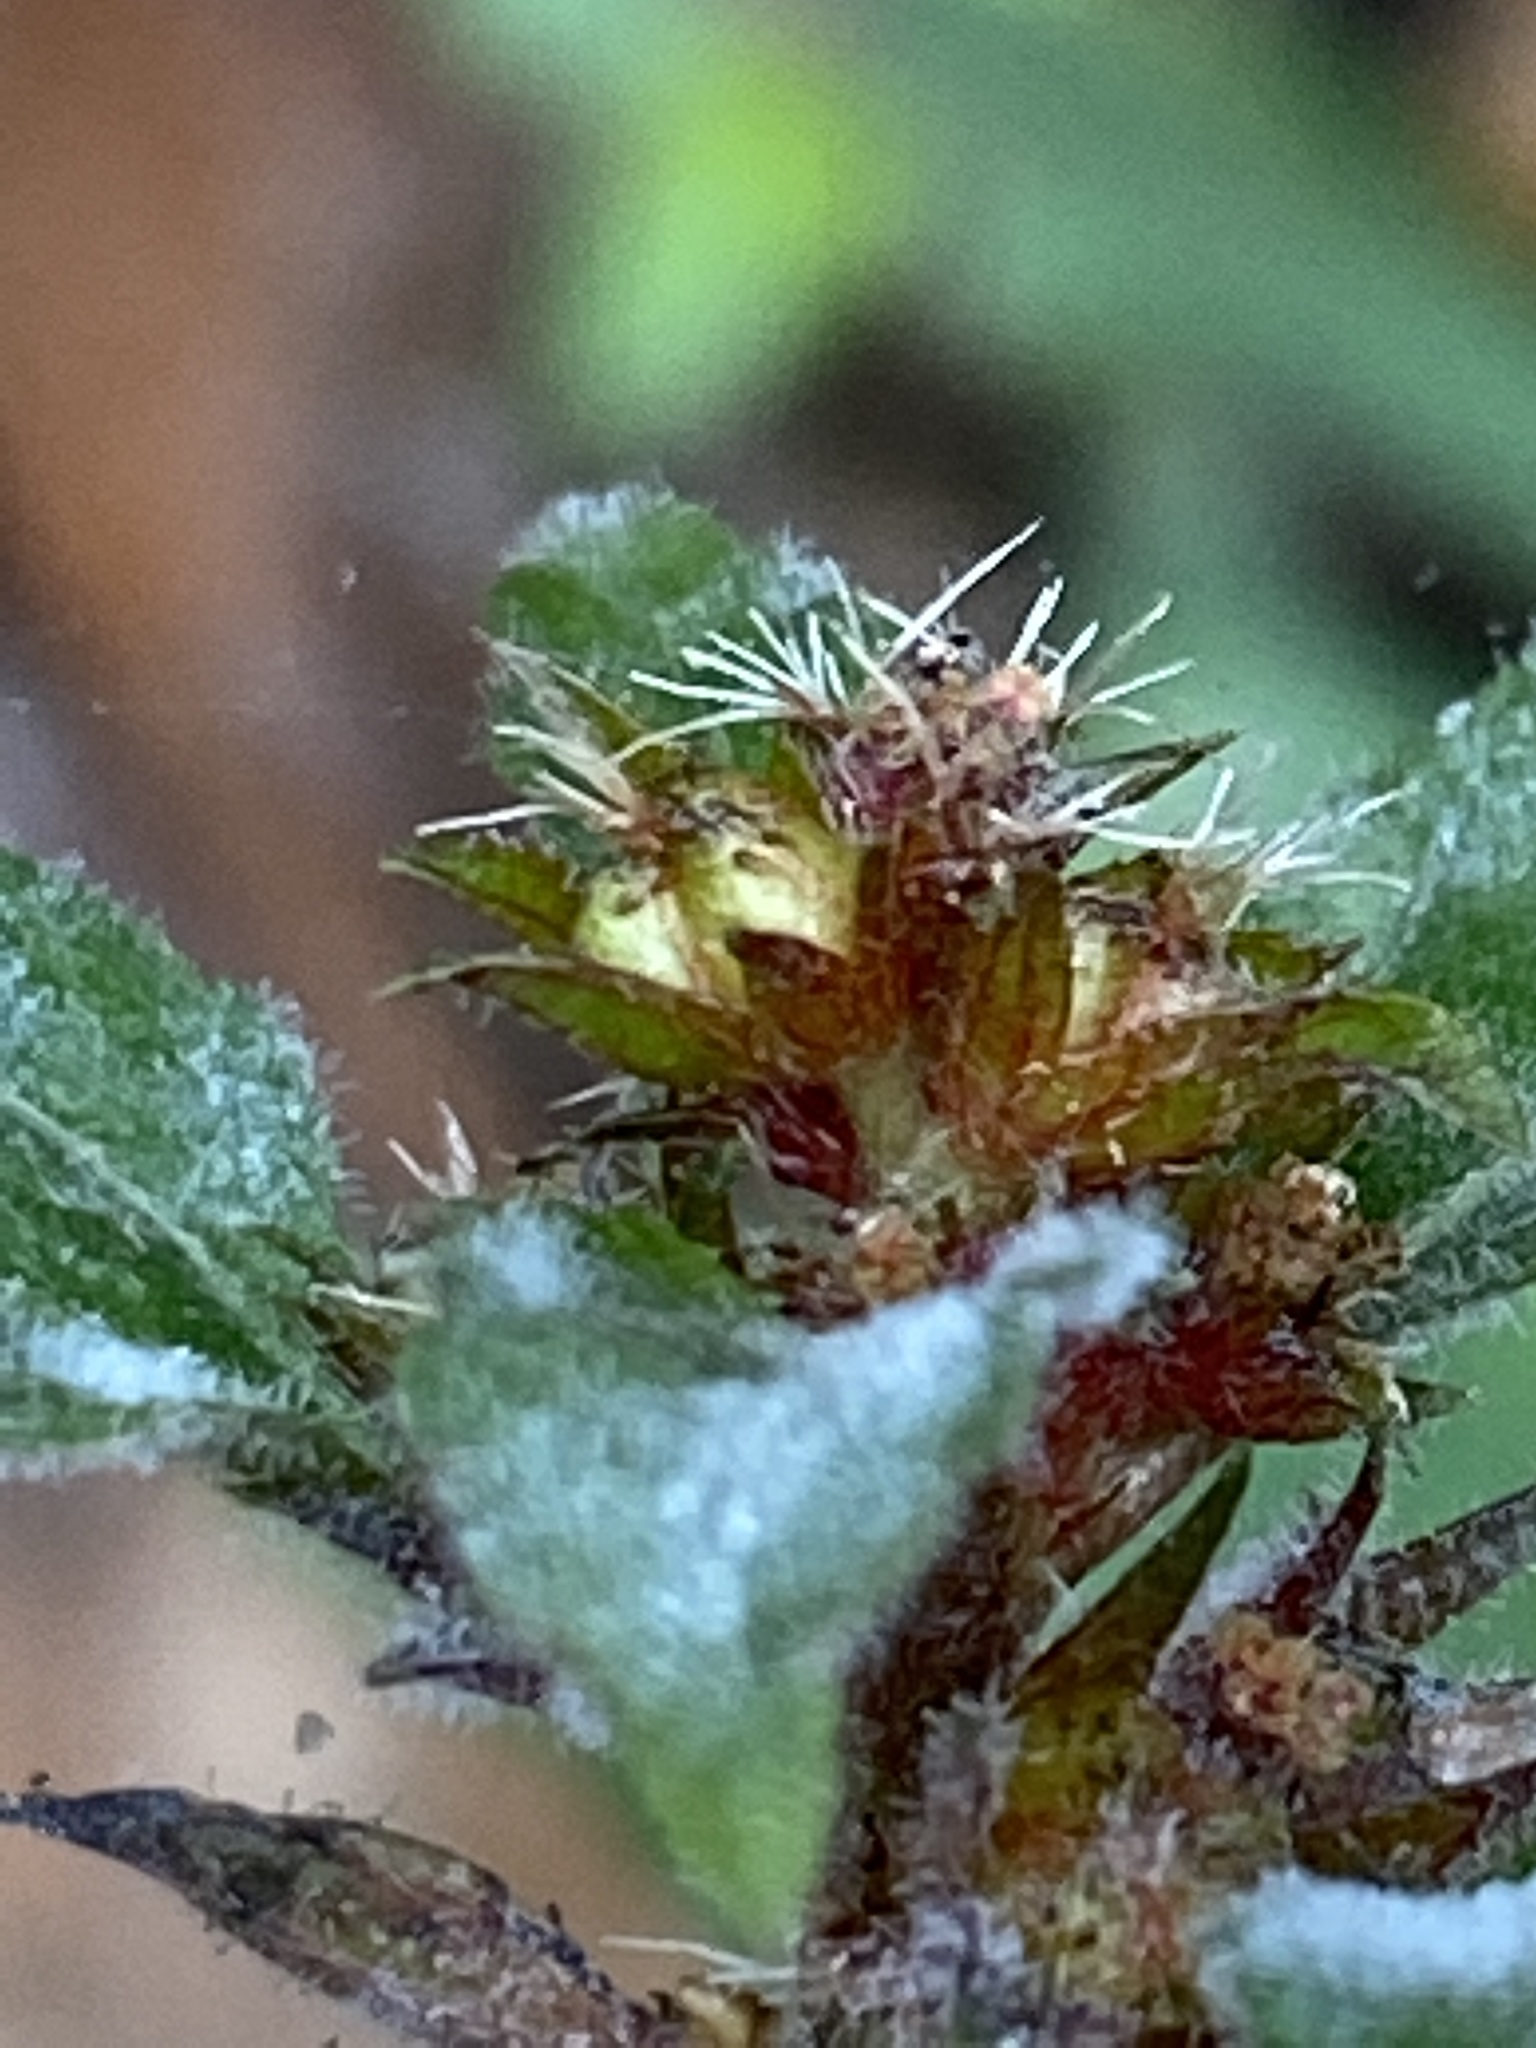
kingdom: Plantae
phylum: Tracheophyta
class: Magnoliopsida
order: Malpighiales
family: Euphorbiaceae
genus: Acalypha
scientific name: Acalypha virginica
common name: Virginia copperleaf
